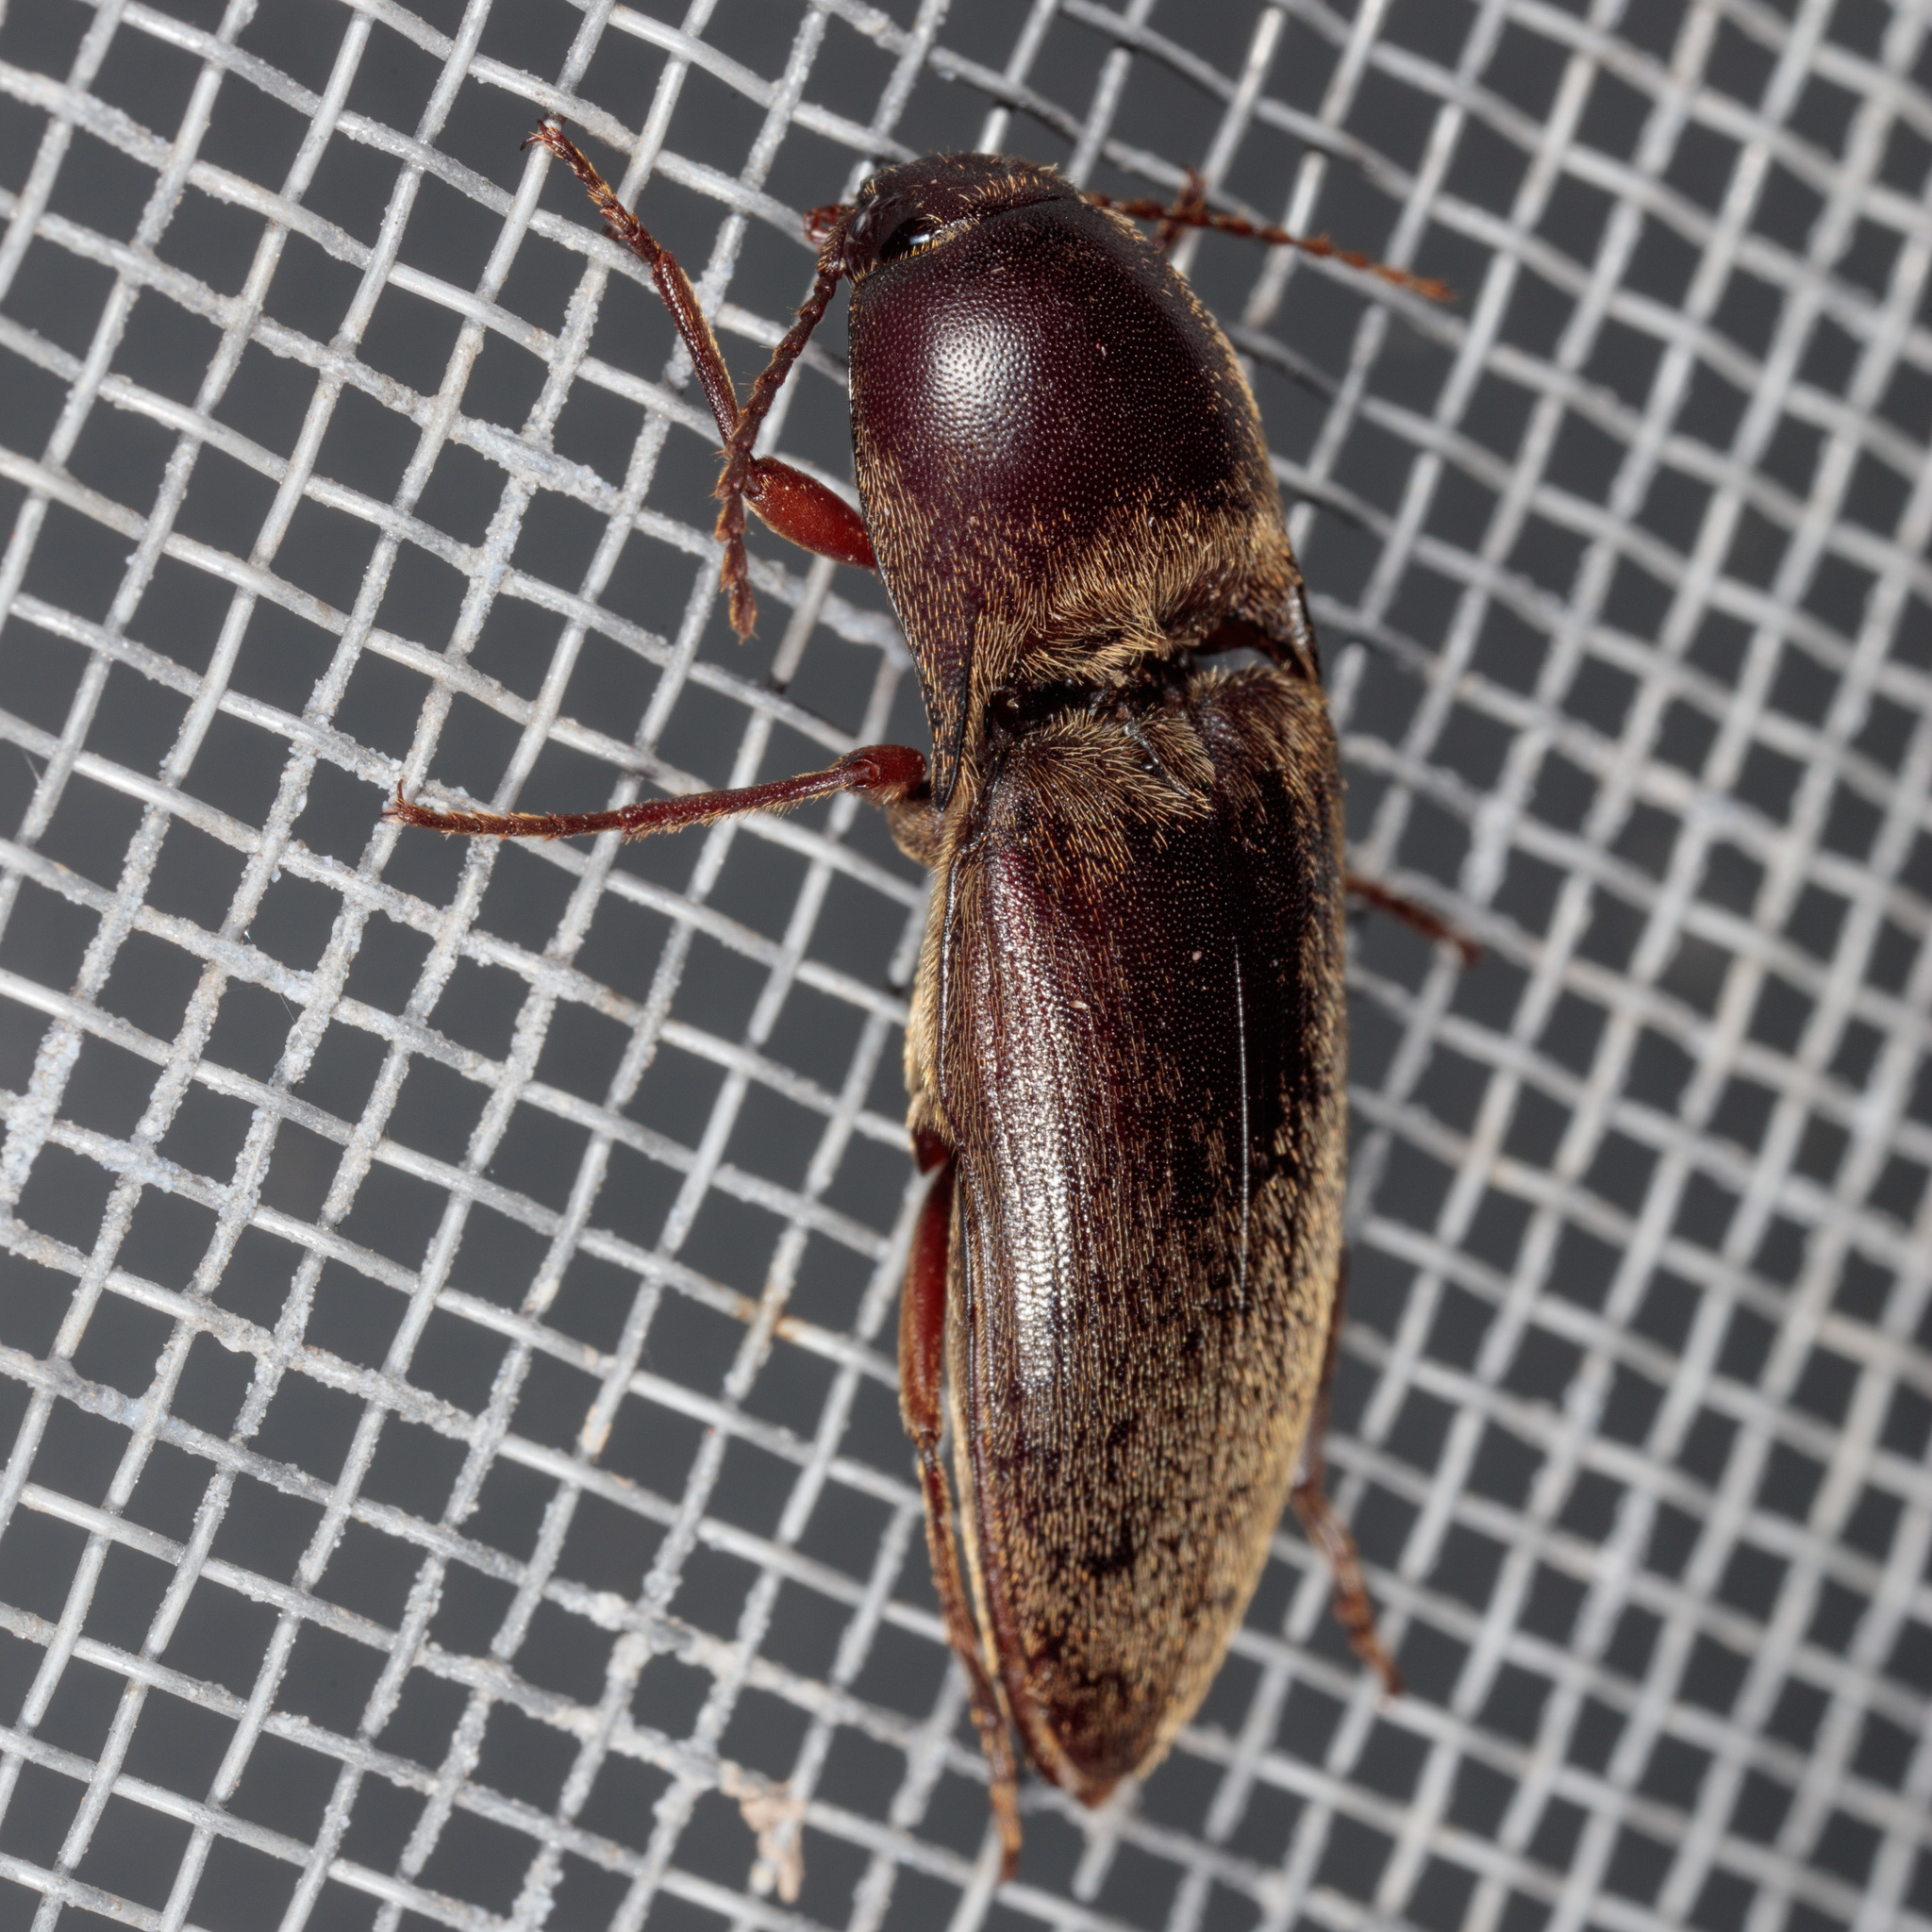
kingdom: Animalia
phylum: Arthropoda
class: Insecta
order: Coleoptera
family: Elateridae
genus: Diplostethus
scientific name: Diplostethus
